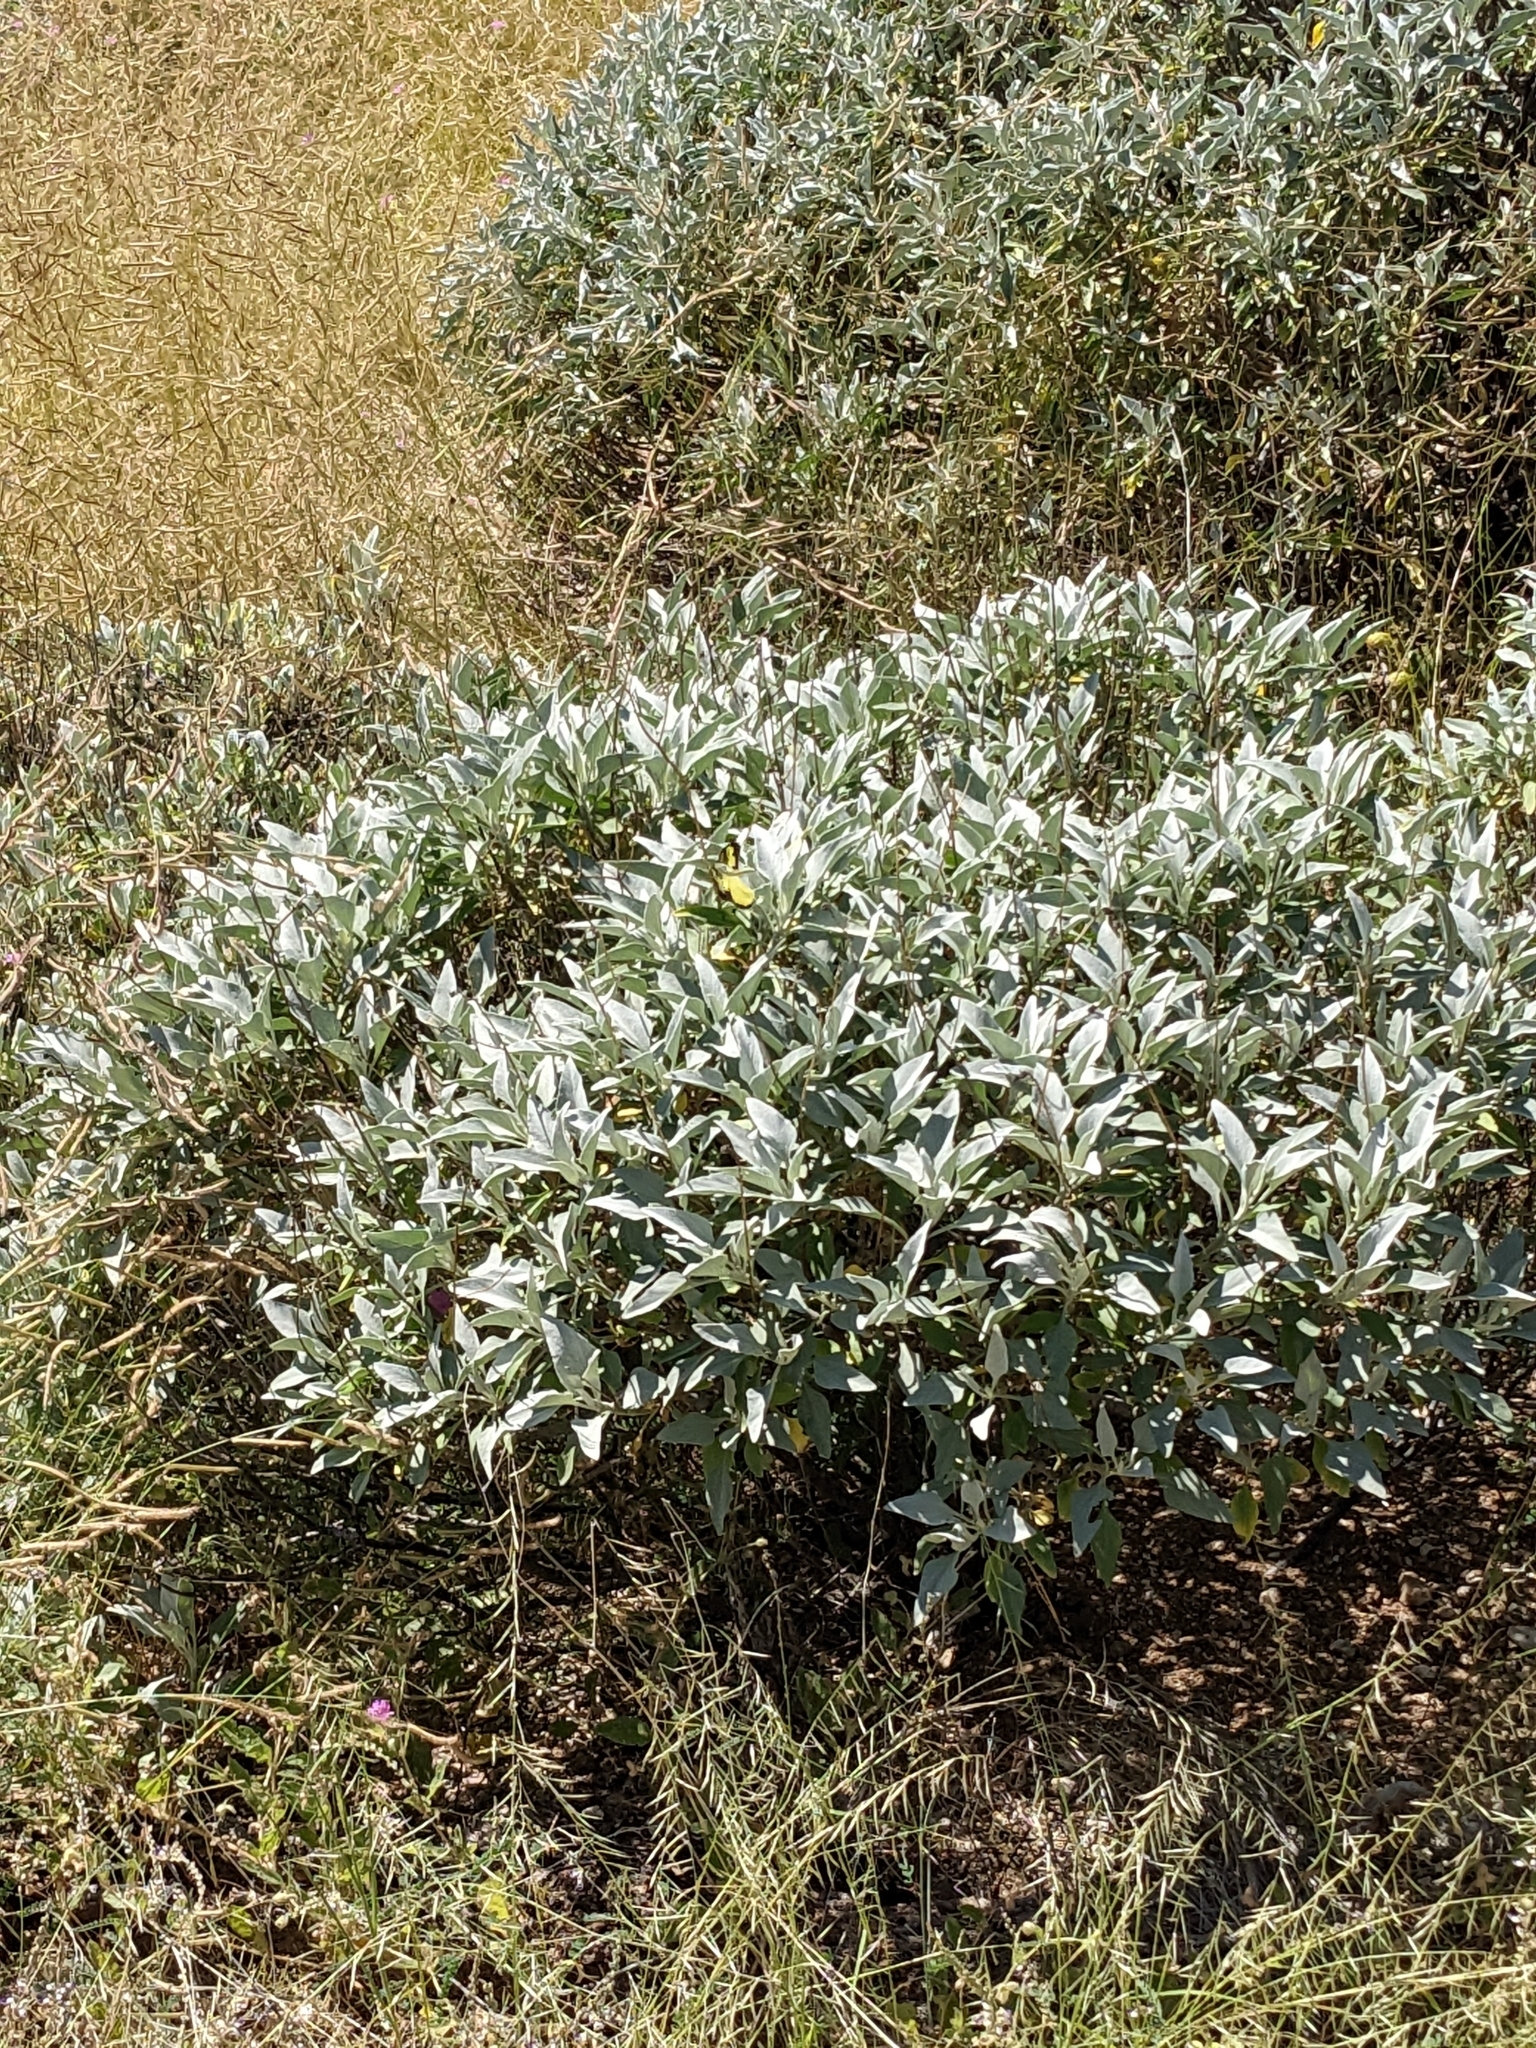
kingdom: Plantae
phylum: Tracheophyta
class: Magnoliopsida
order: Asterales
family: Asteraceae
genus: Encelia
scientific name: Encelia farinosa
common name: Brittlebush
